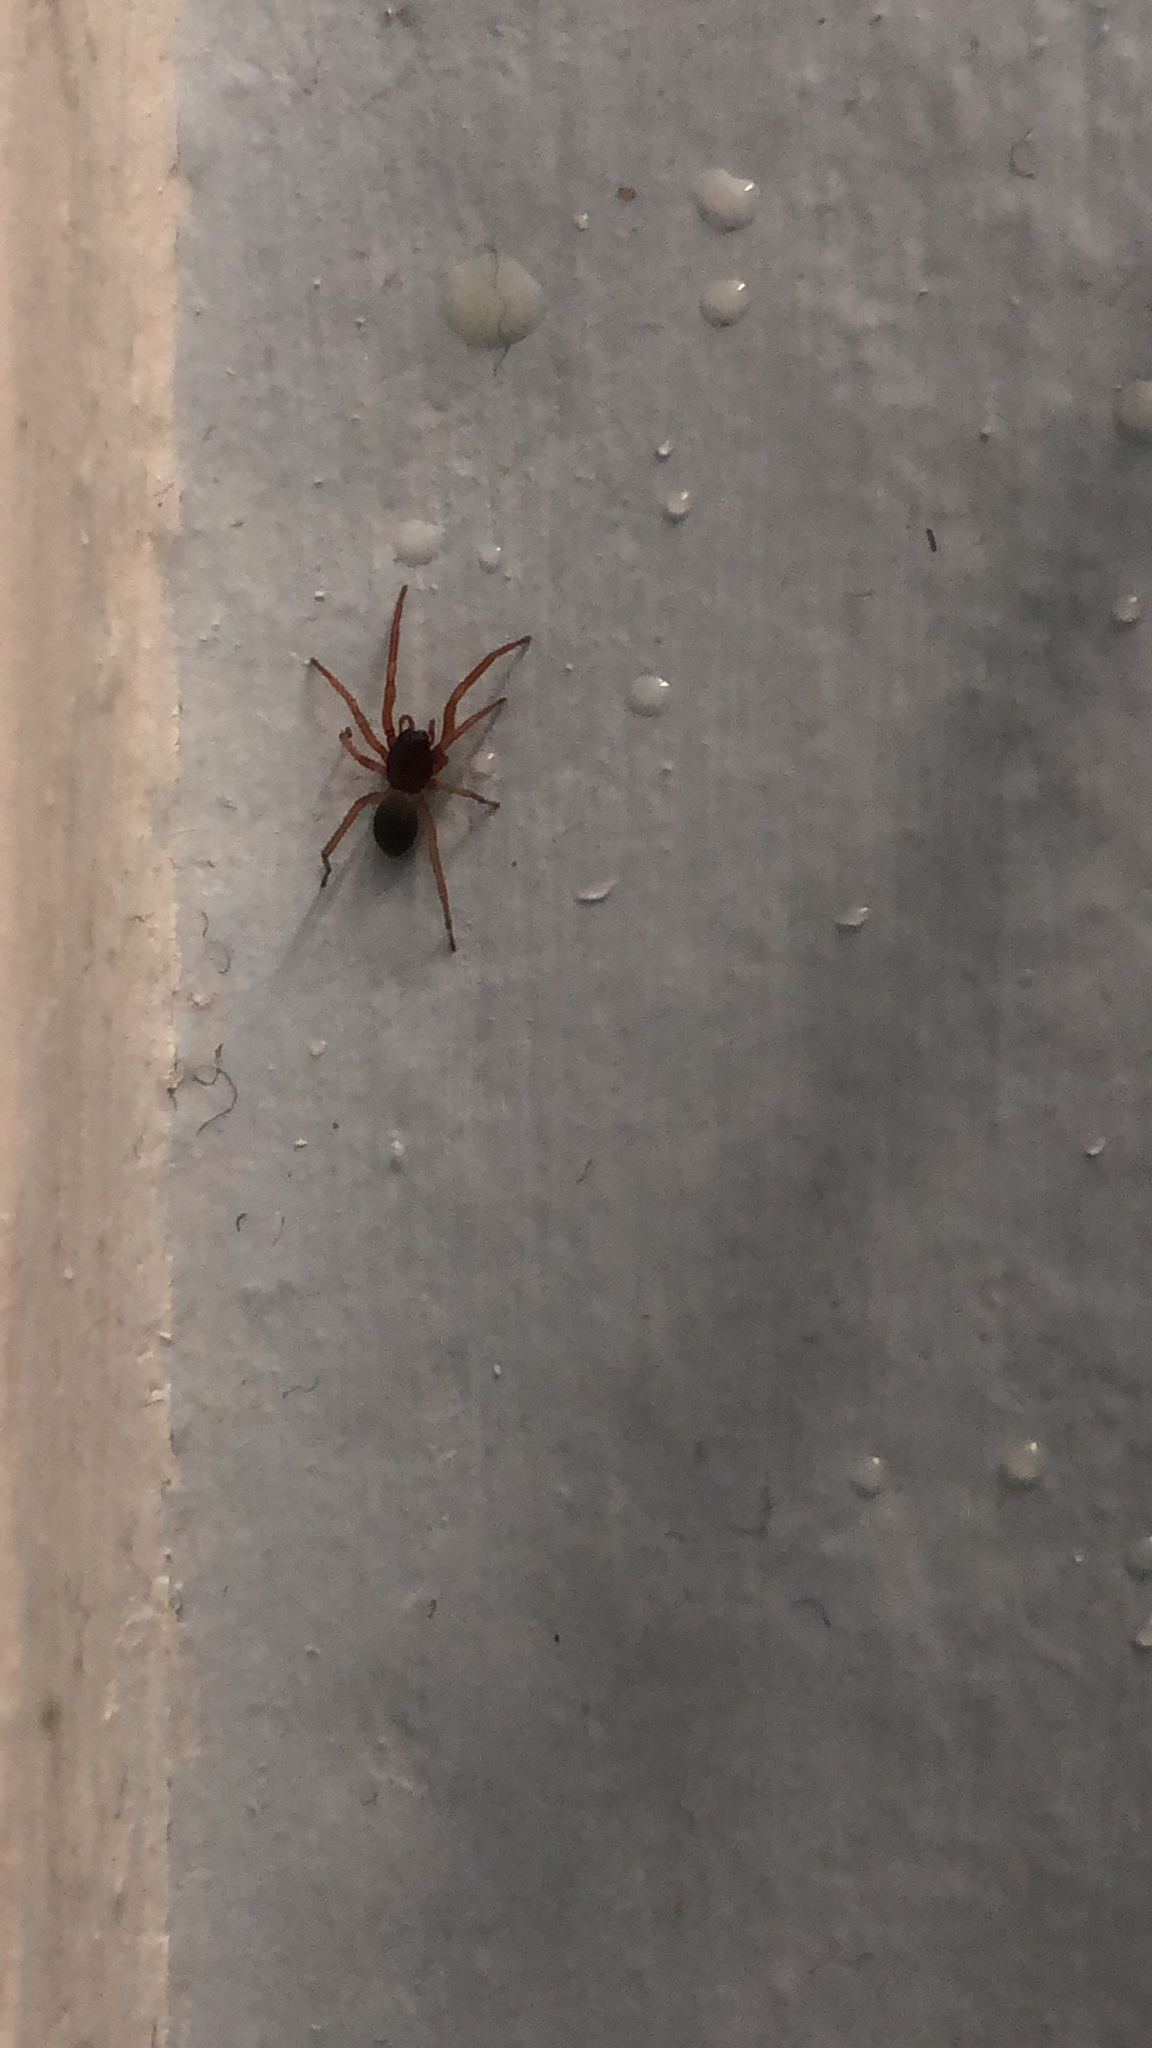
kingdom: Animalia
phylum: Arthropoda
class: Arachnida
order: Araneae
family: Trachelidae
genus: Trachelas
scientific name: Trachelas pacificus
